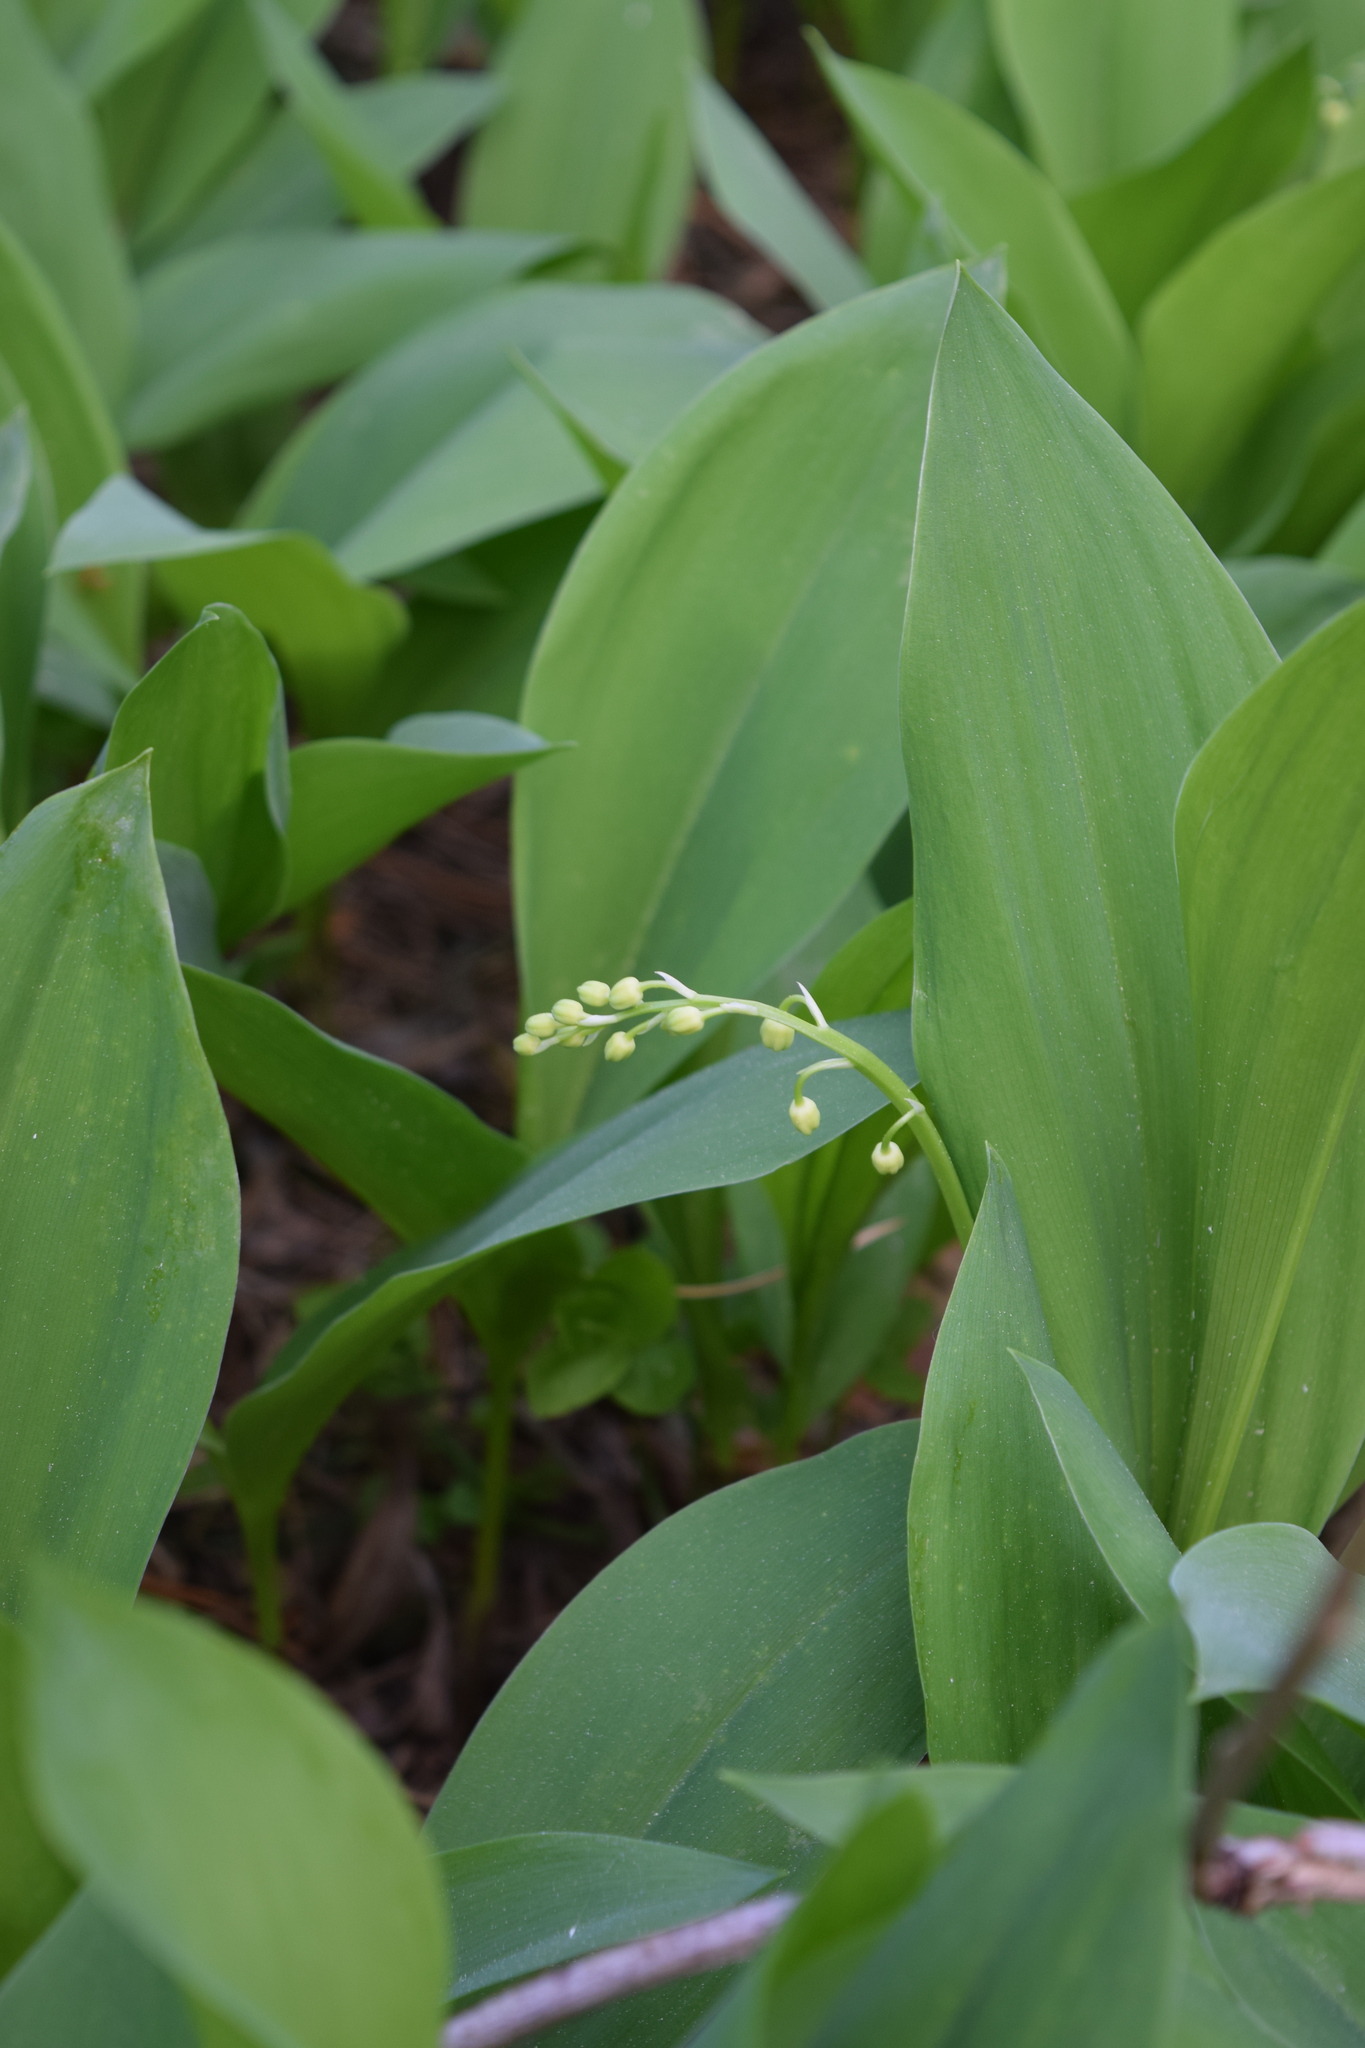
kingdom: Plantae
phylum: Tracheophyta
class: Liliopsida
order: Asparagales
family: Asparagaceae
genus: Convallaria
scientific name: Convallaria majalis
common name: Lily-of-the-valley
